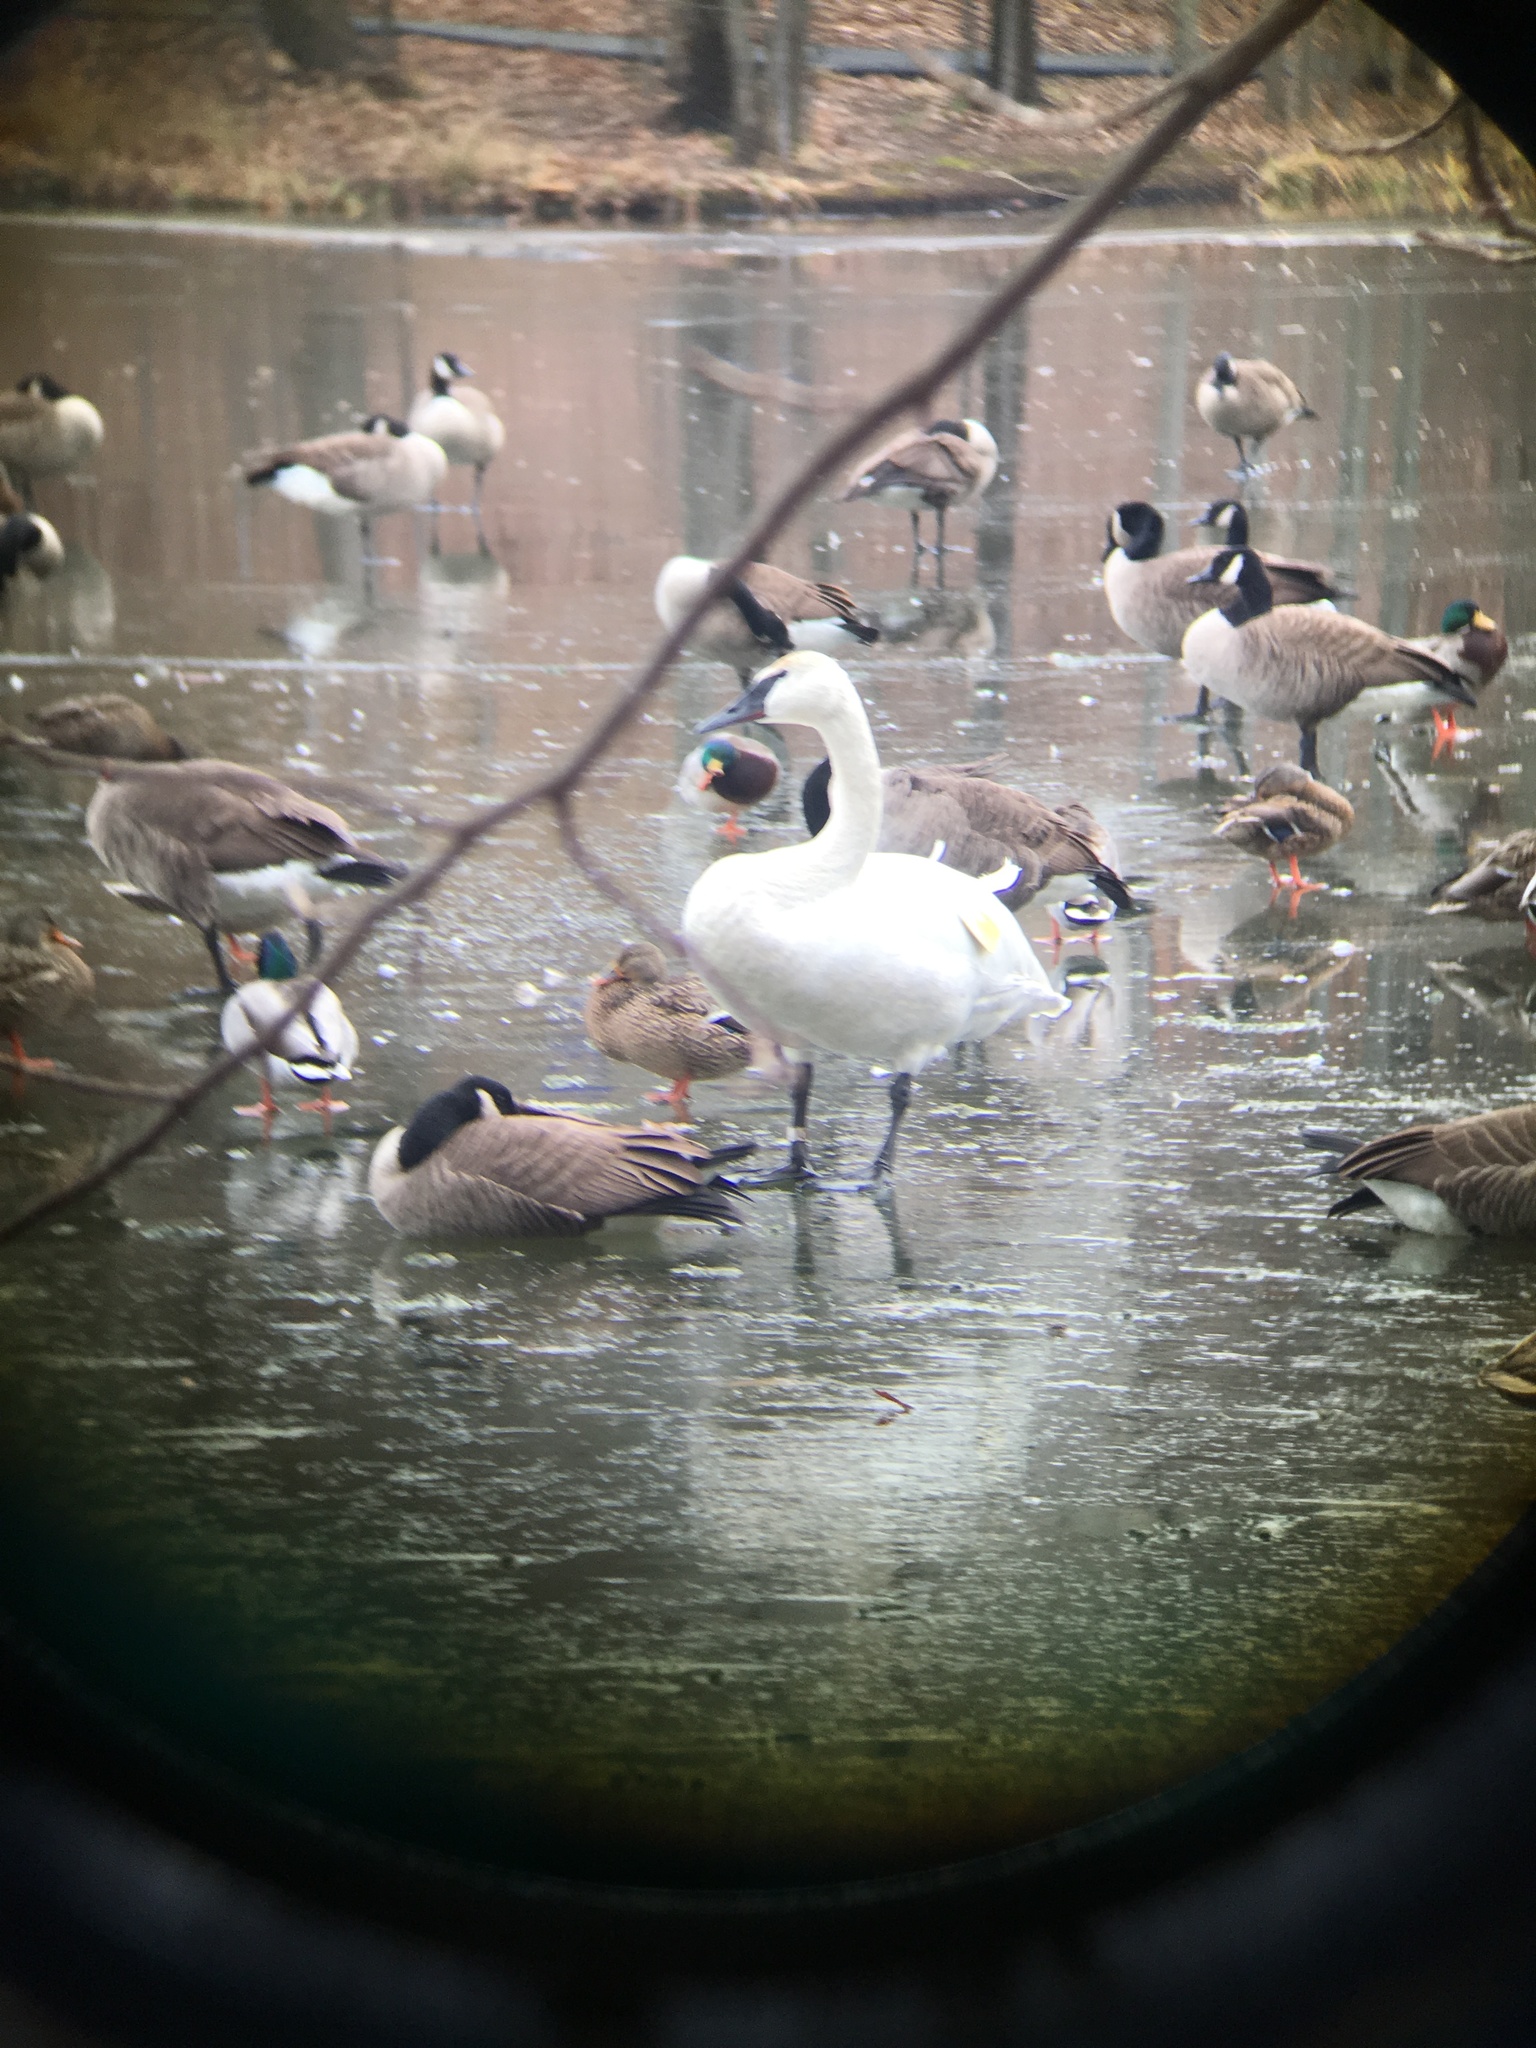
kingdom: Animalia
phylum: Chordata
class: Aves
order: Anseriformes
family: Anatidae
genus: Cygnus
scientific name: Cygnus buccinator
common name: Trumpeter swan
